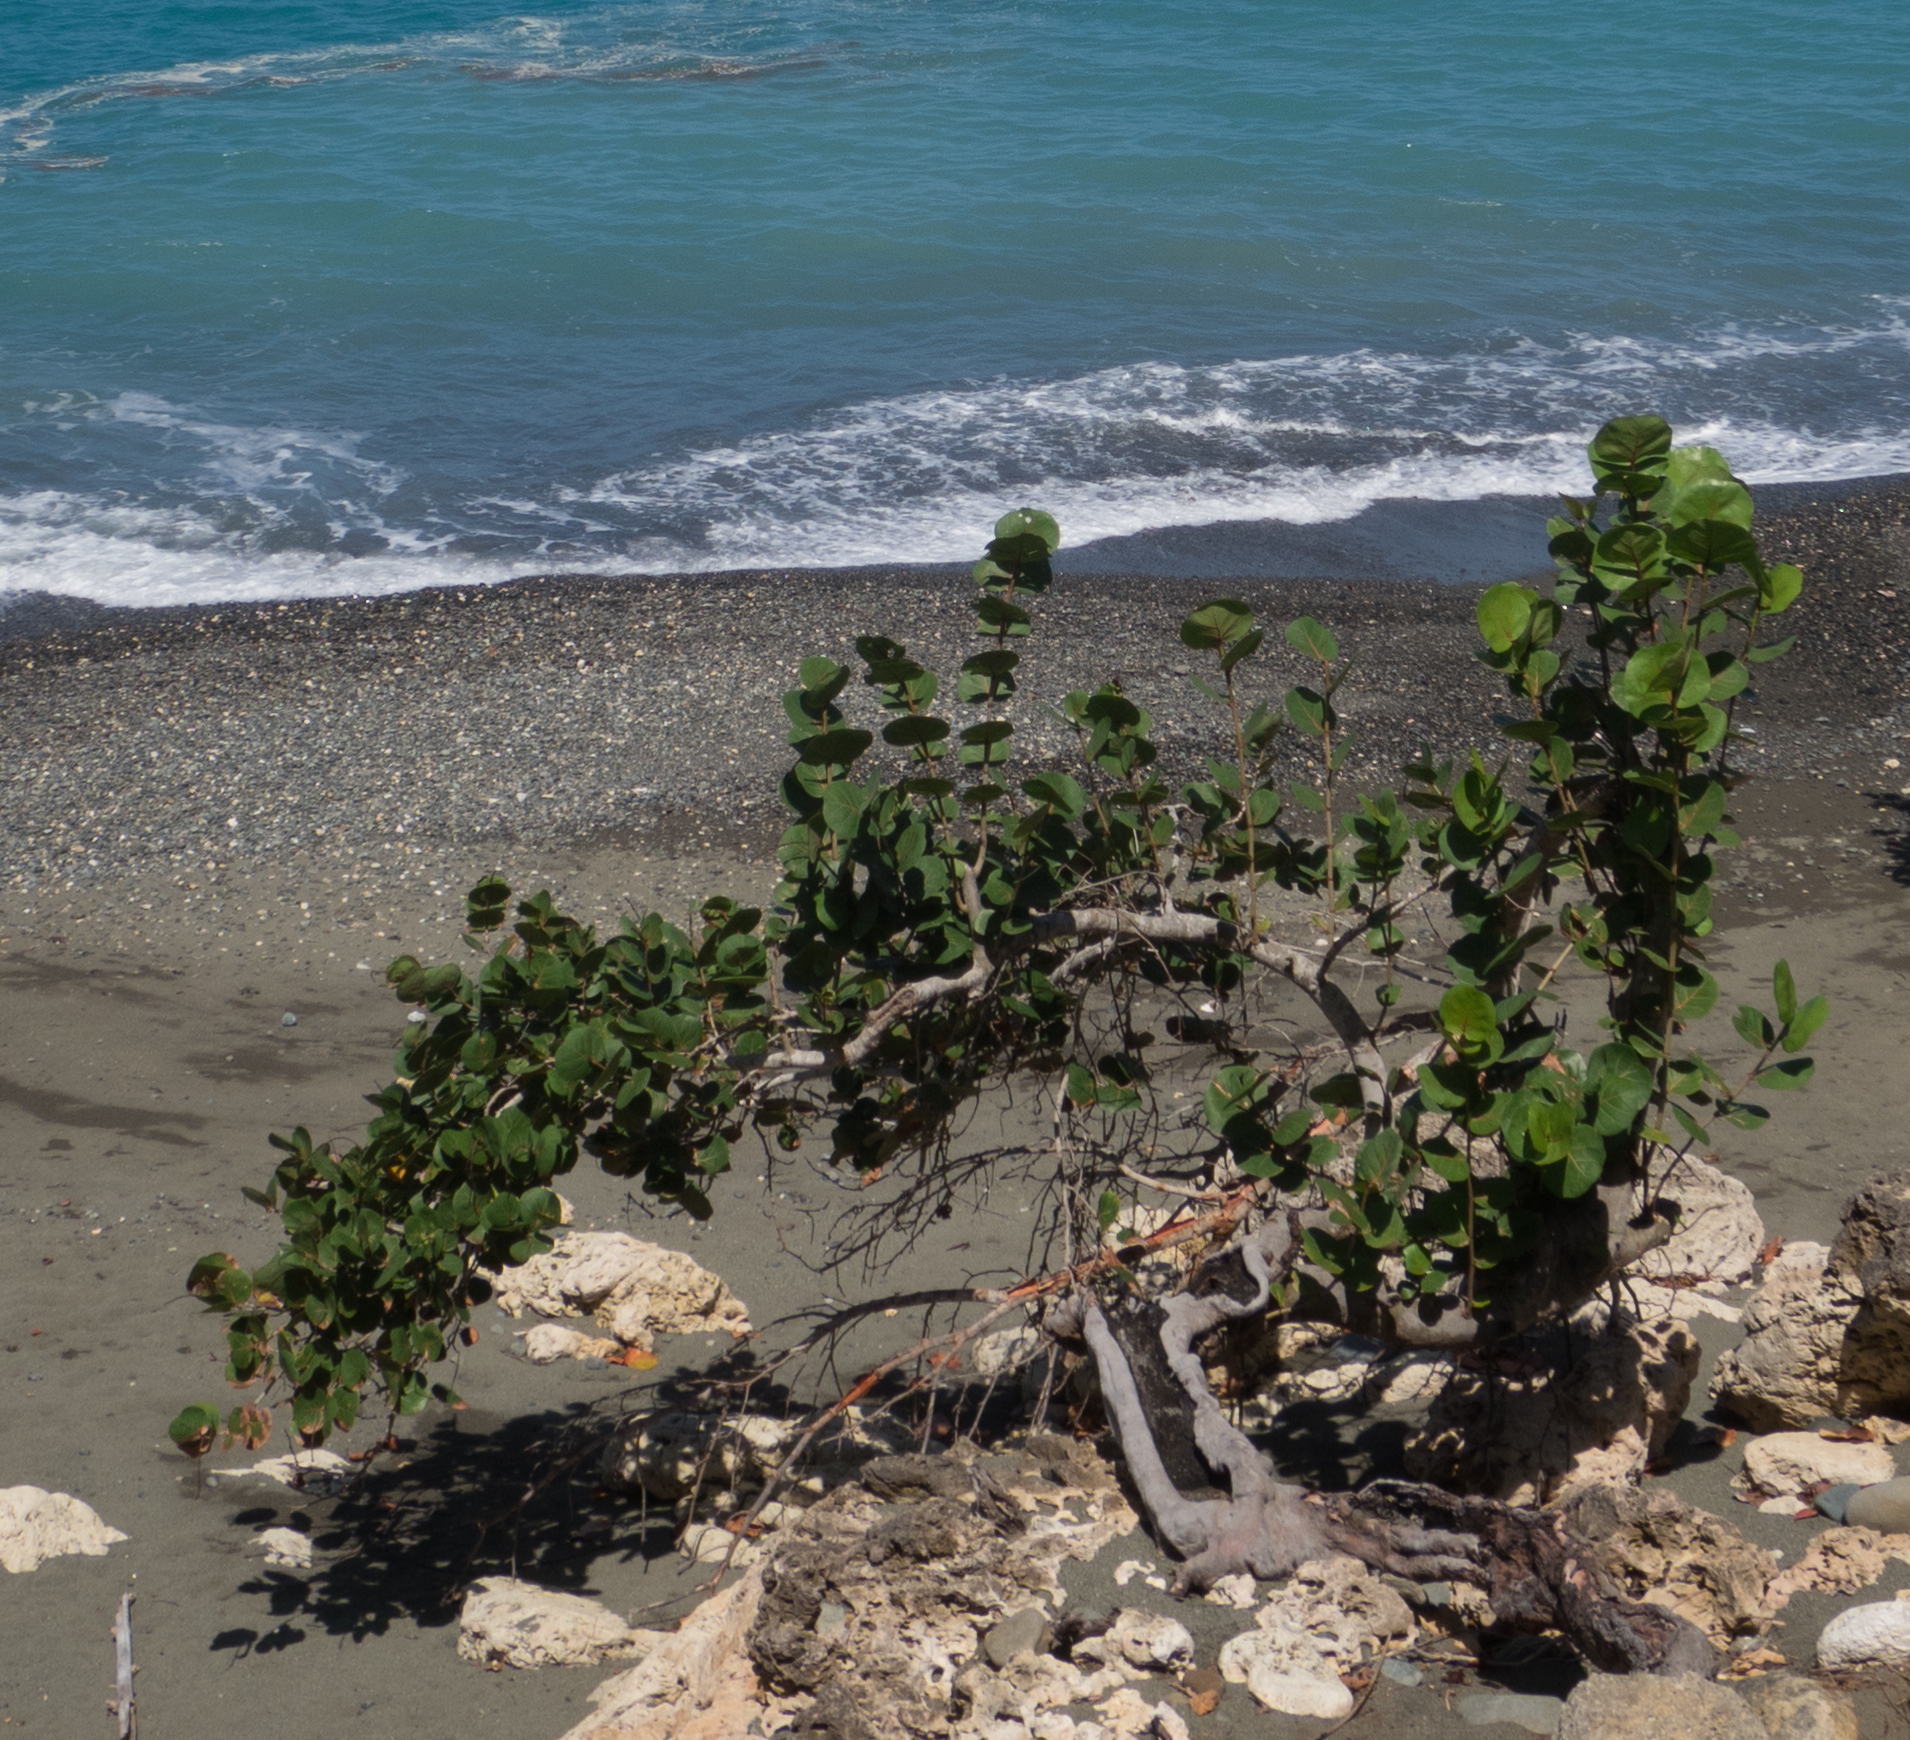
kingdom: Plantae
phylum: Tracheophyta
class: Magnoliopsida
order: Caryophyllales
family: Polygonaceae
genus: Coccoloba
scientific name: Coccoloba uvifera
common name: Seagrape
